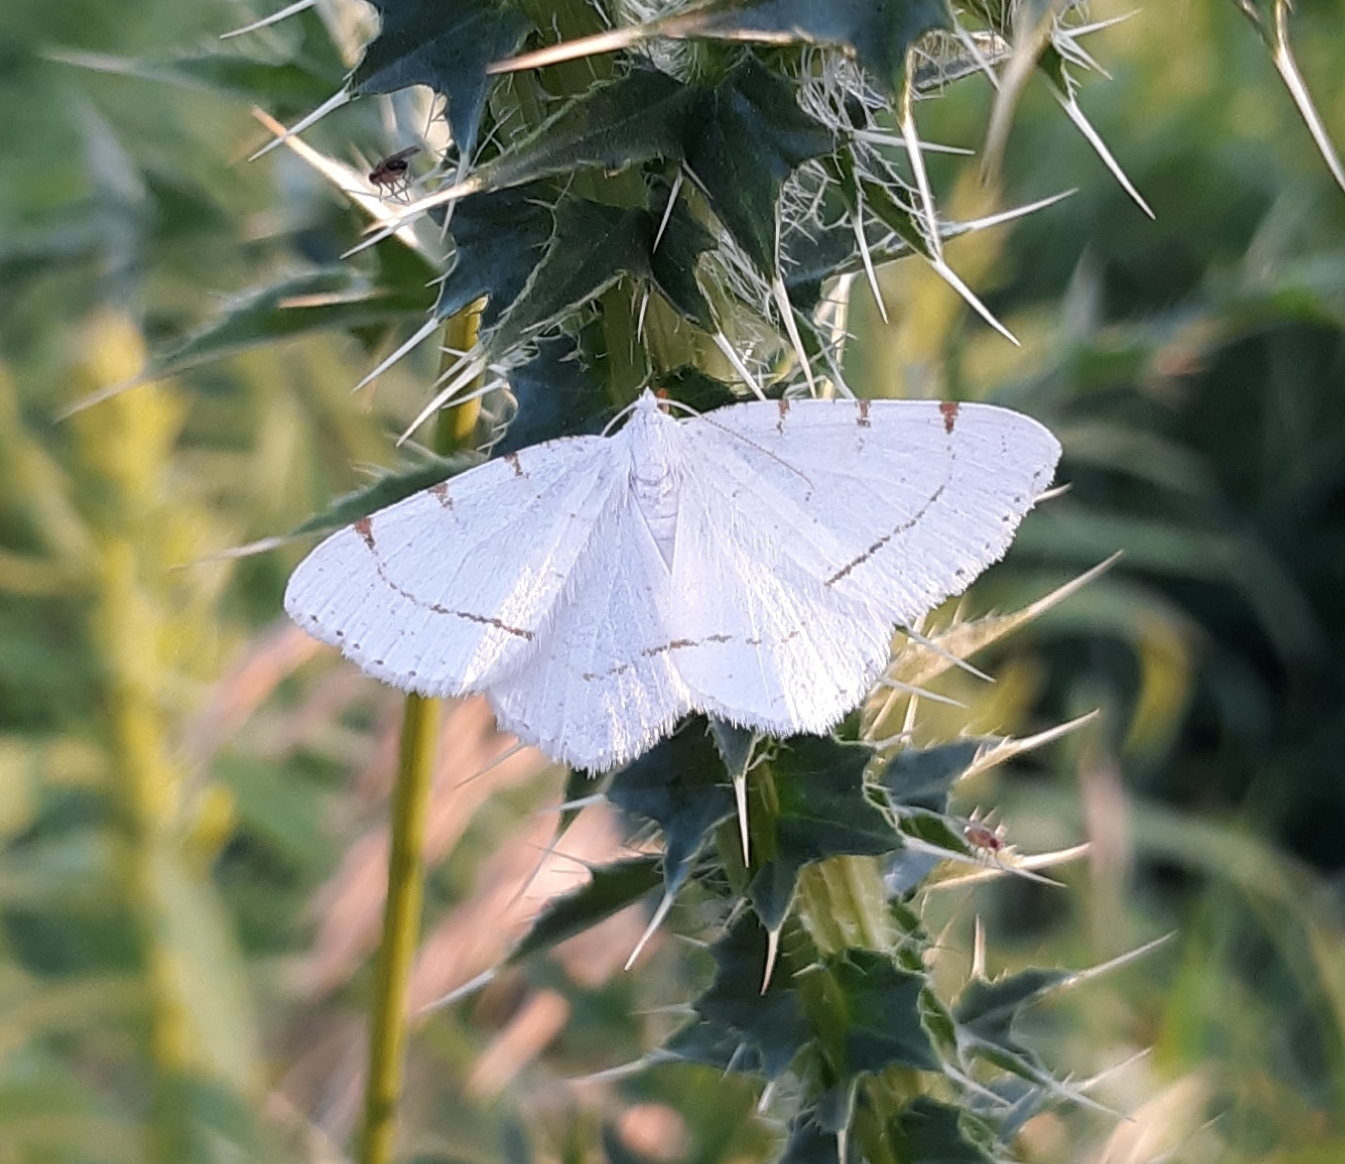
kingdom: Animalia
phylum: Arthropoda
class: Insecta
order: Lepidoptera
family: Geometridae
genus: Macaria
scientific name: Macaria pustularia
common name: Lesser maple spanworm moth
